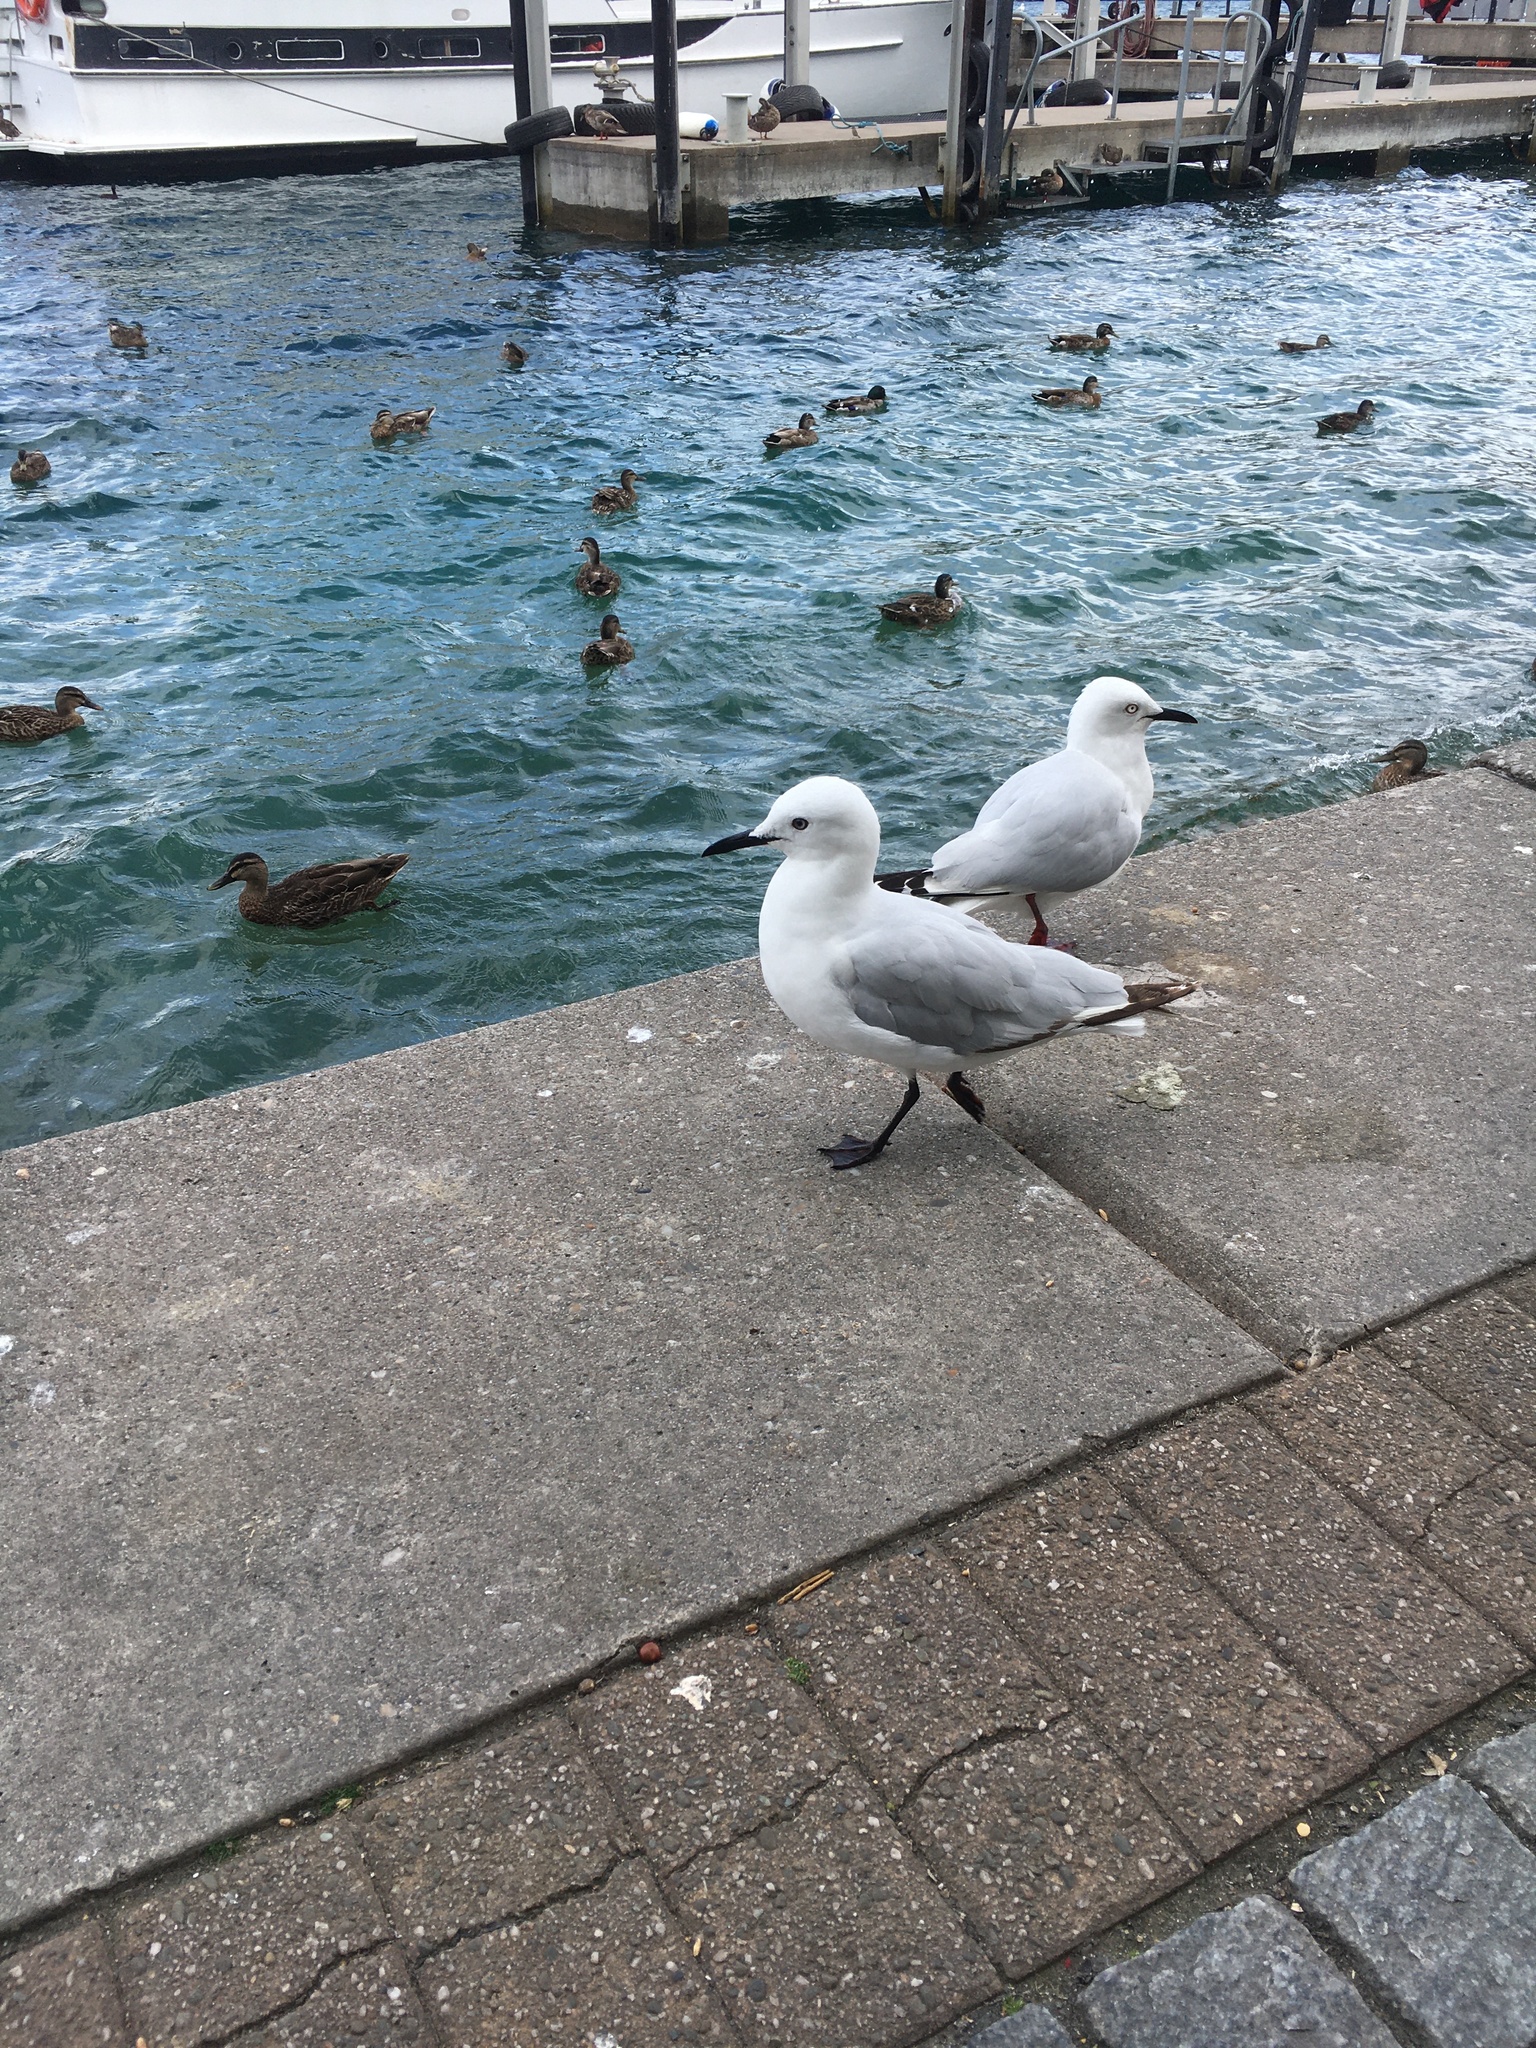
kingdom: Animalia
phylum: Chordata
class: Aves
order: Charadriiformes
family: Laridae
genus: Chroicocephalus
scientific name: Chroicocephalus bulleri
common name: Black-billed gull
